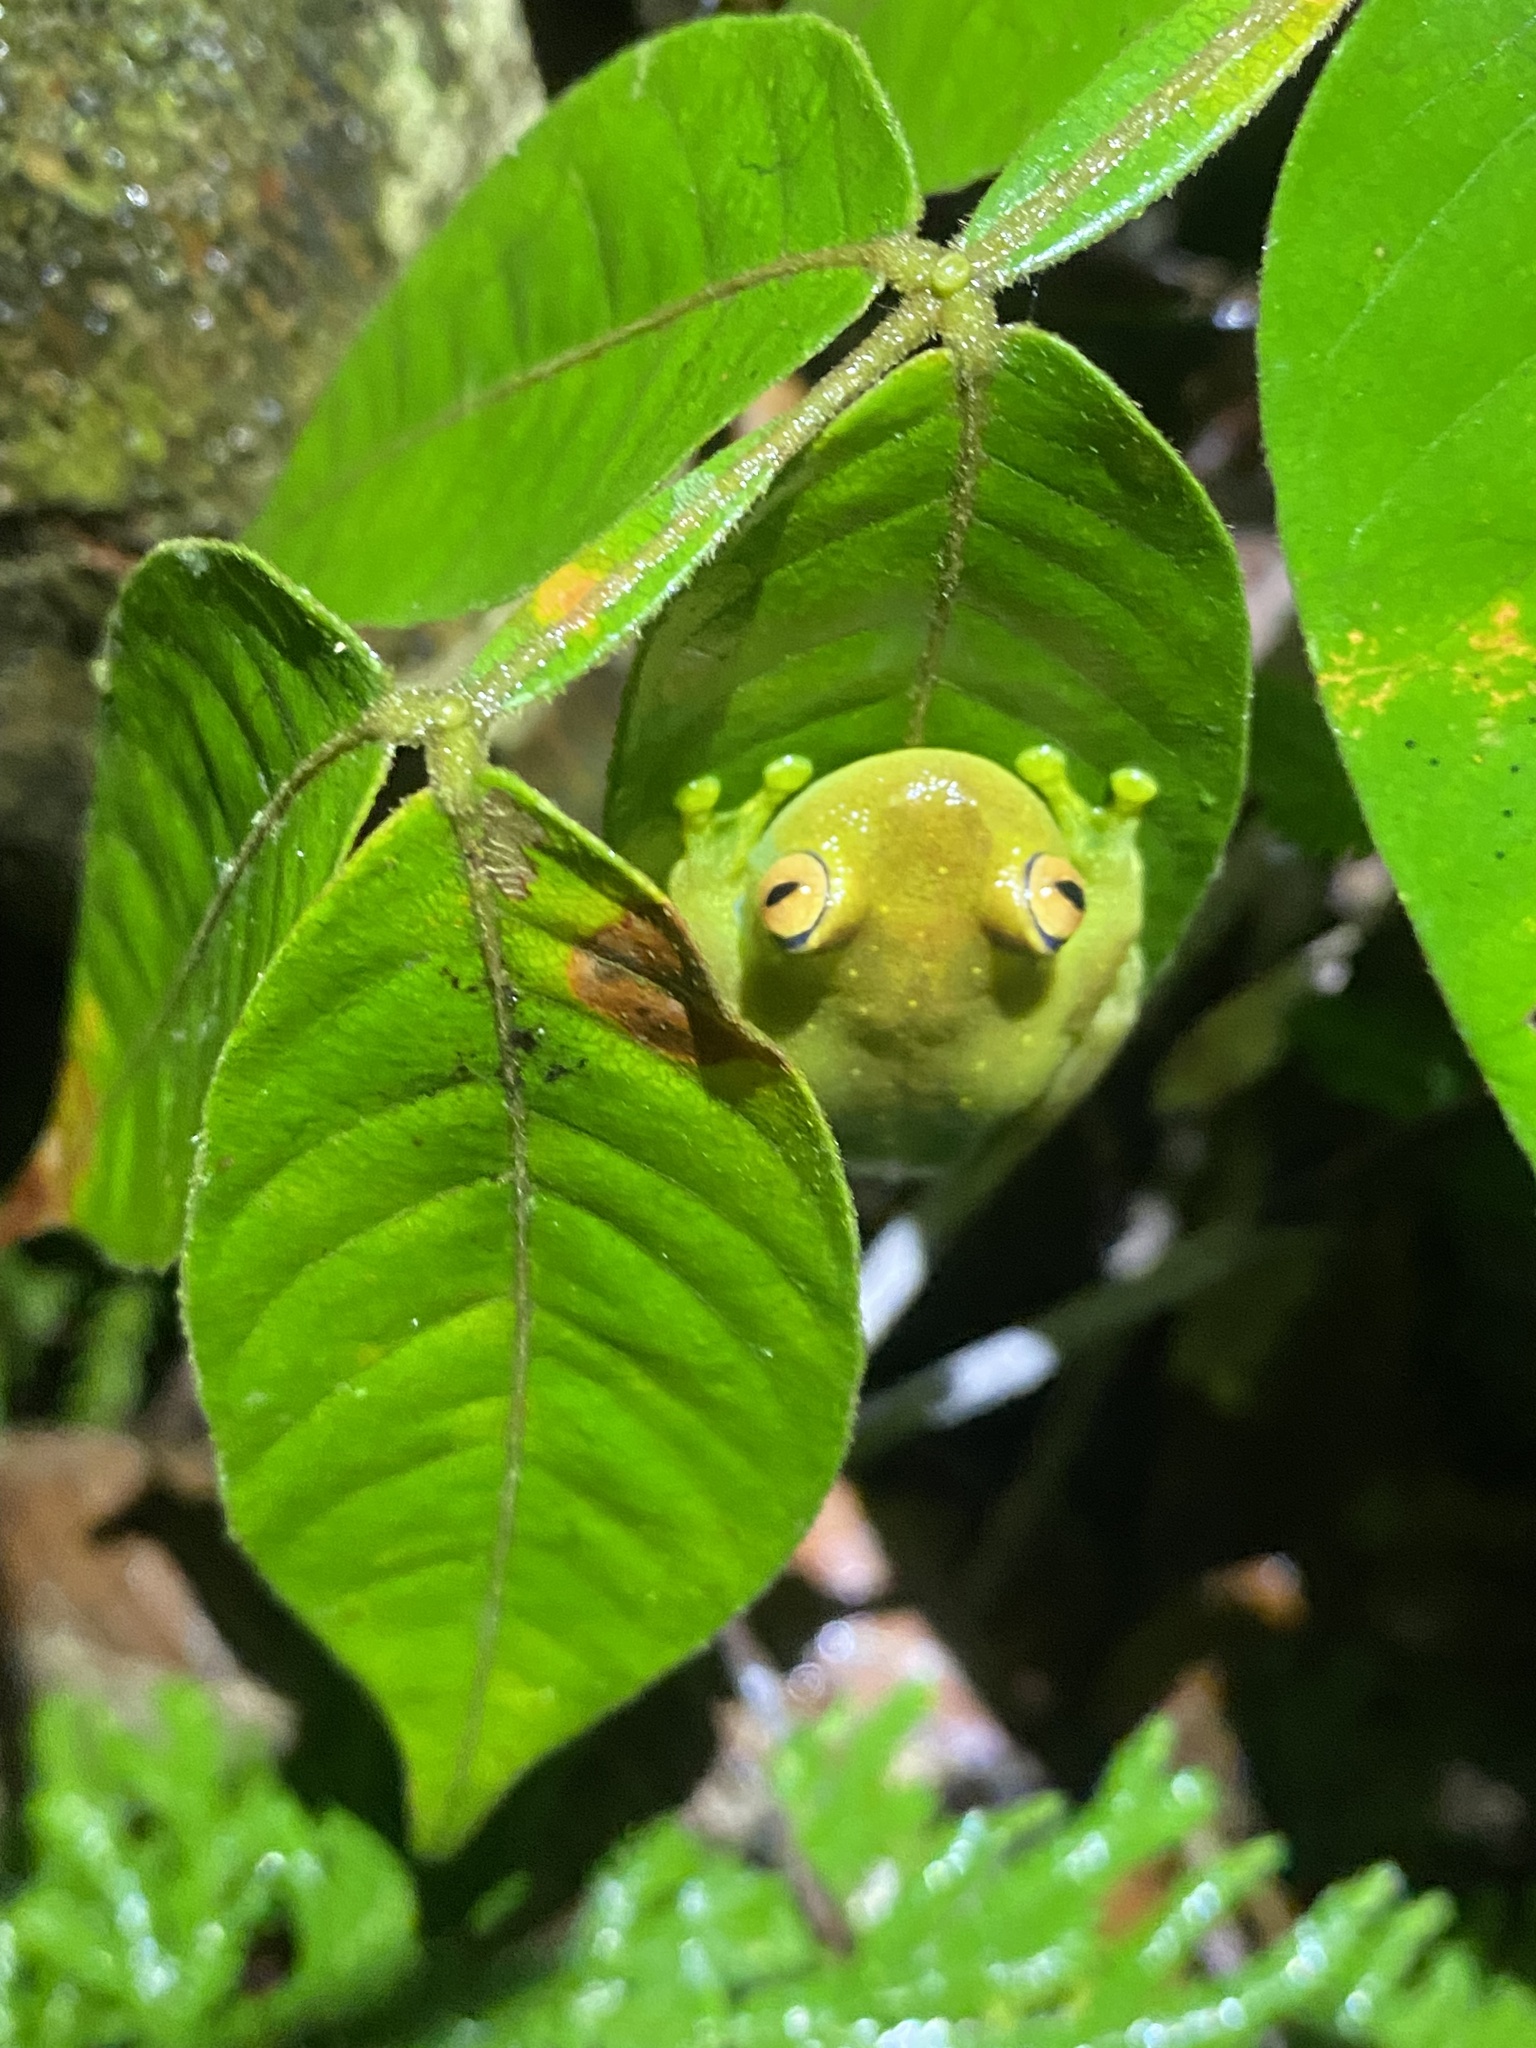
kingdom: Animalia
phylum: Chordata
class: Amphibia
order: Anura
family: Hylidae
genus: Boana
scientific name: Boana cinerascens
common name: Demerara falls treefrog
